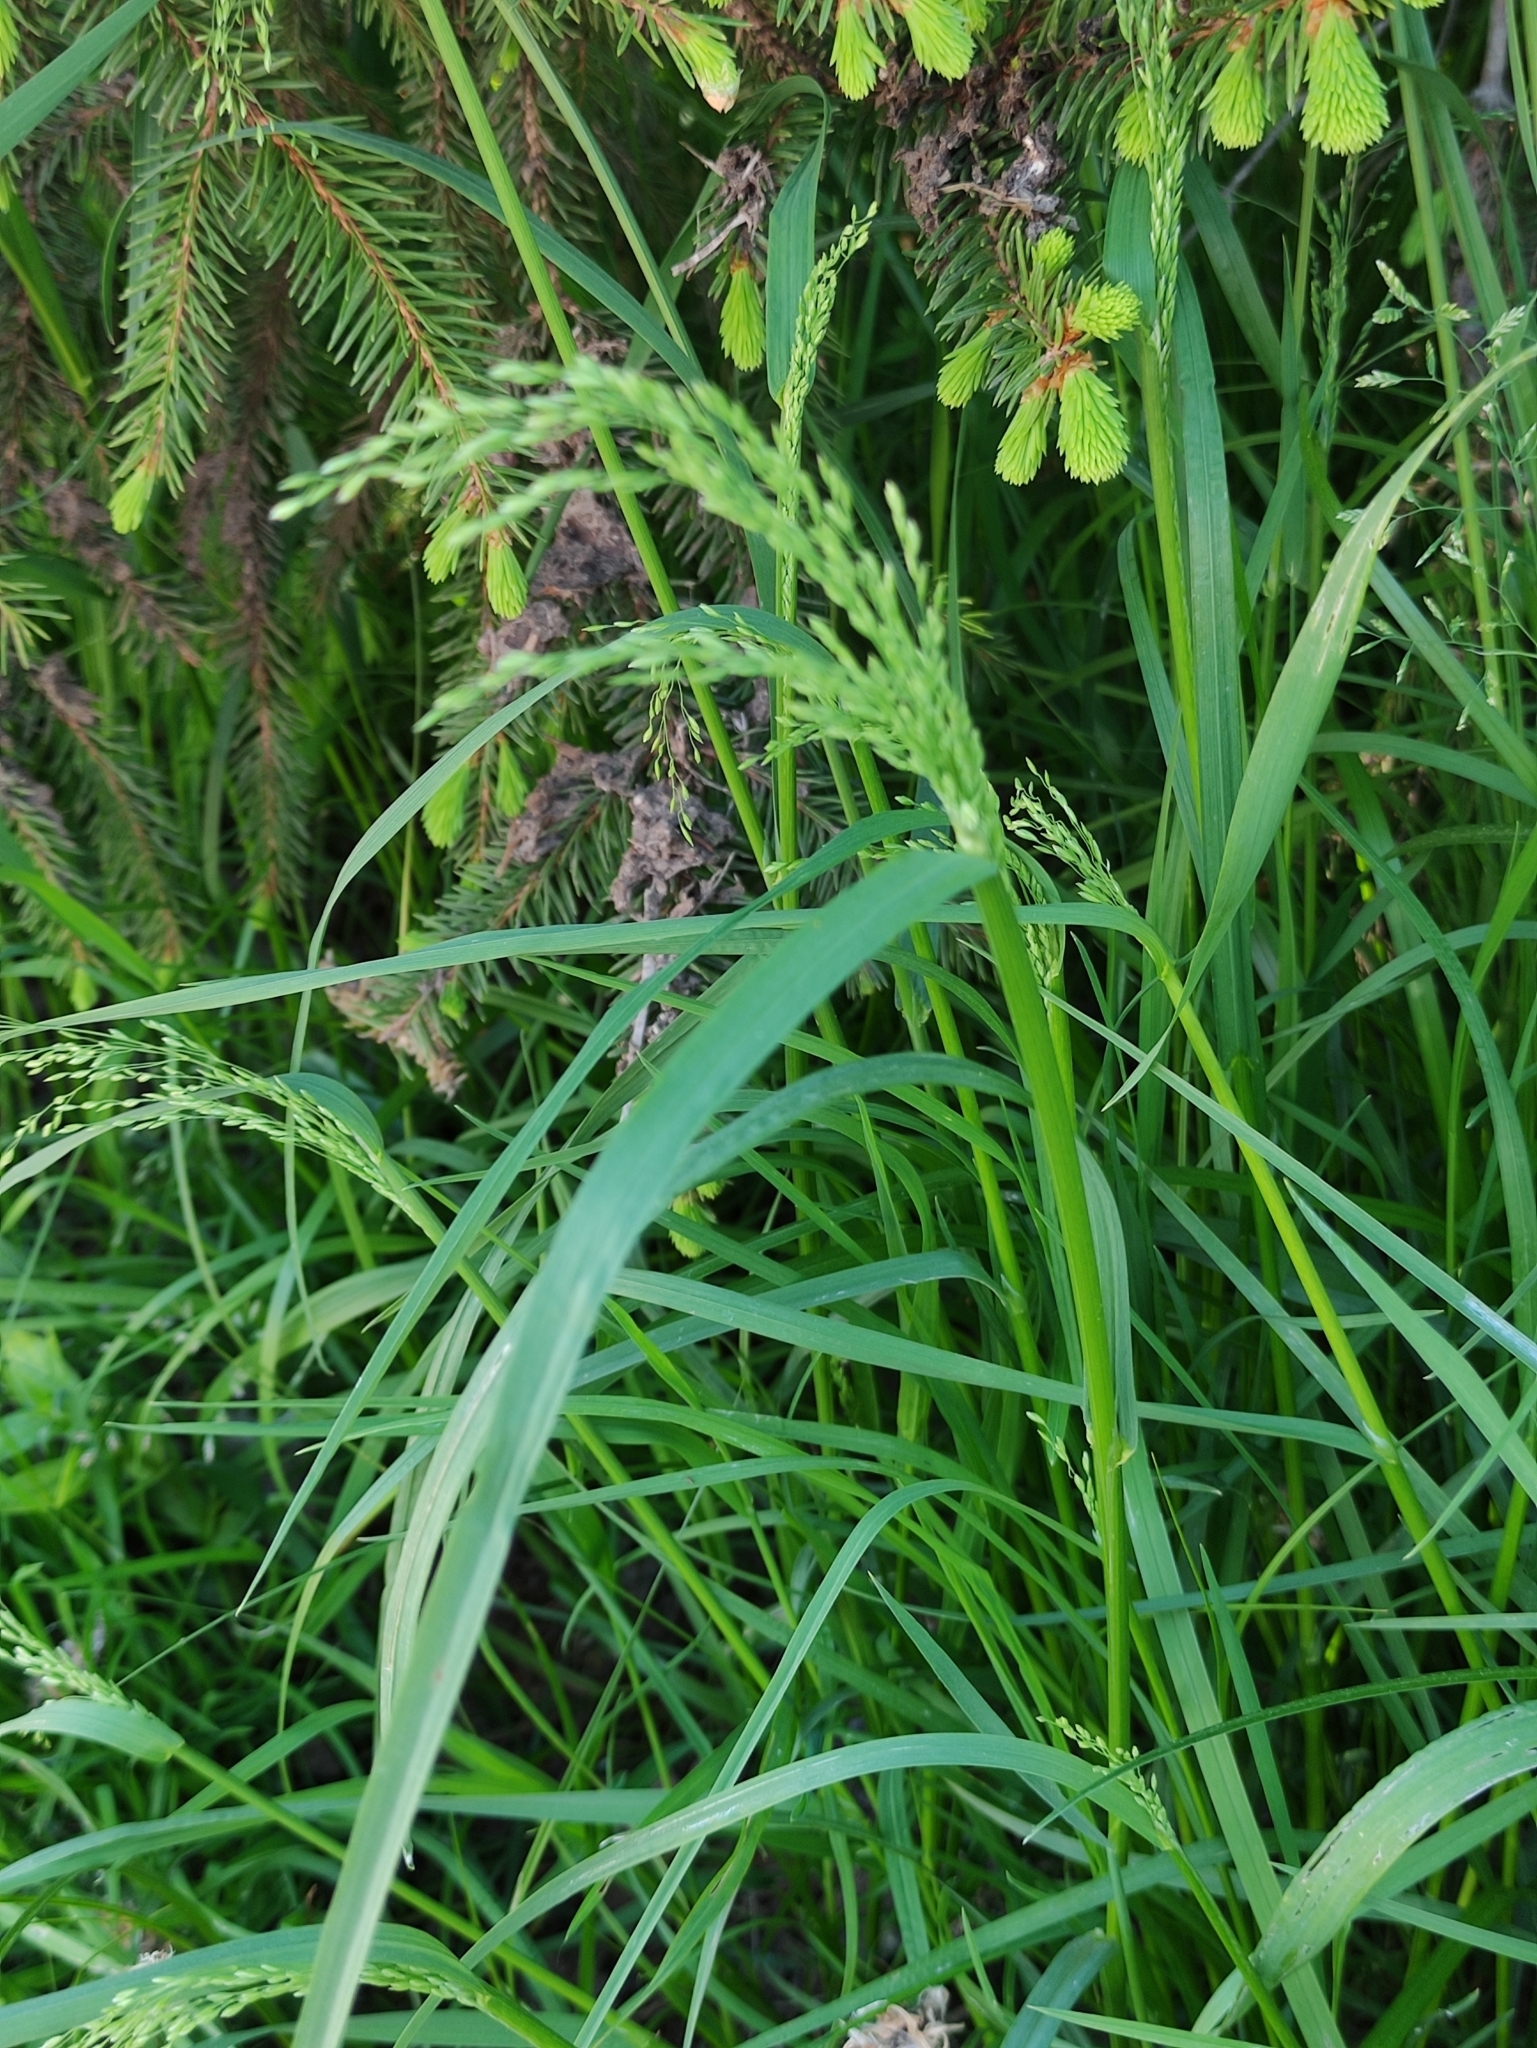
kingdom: Plantae
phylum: Tracheophyta
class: Liliopsida
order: Poales
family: Poaceae
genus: Poa
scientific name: Poa trivialis
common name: Rough bluegrass
